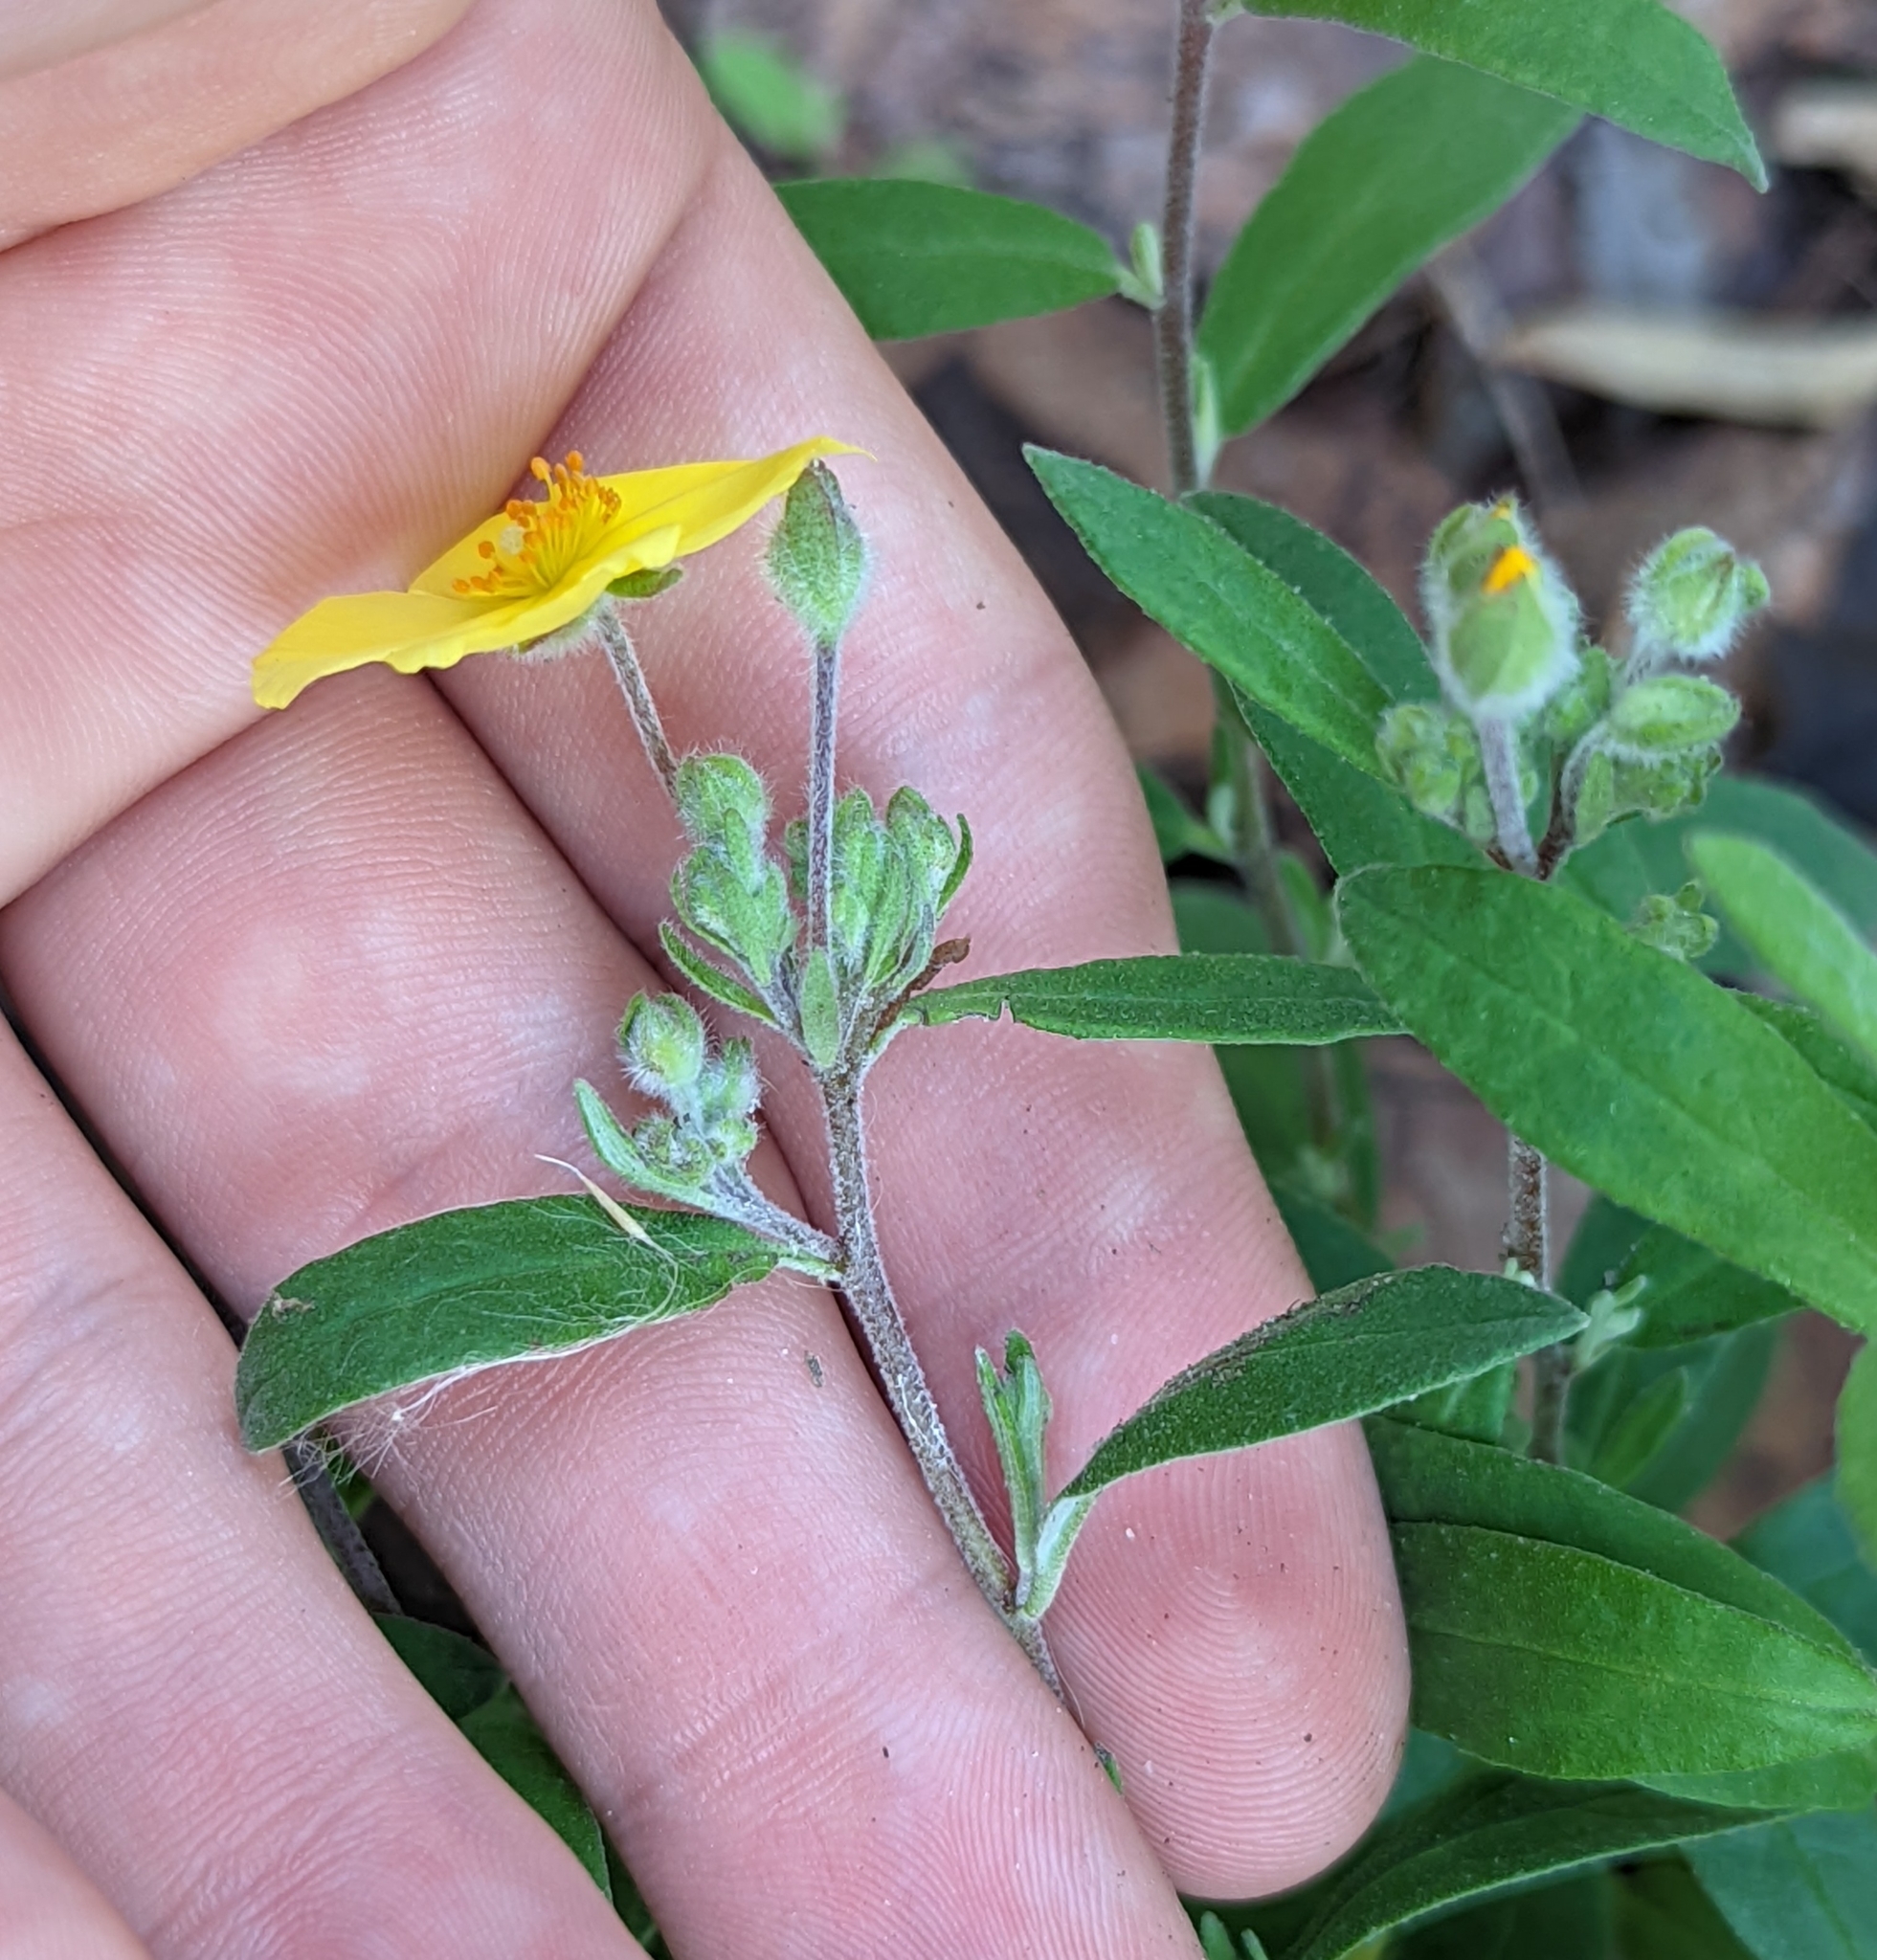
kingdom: Plantae
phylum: Tracheophyta
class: Magnoliopsida
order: Malvales
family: Cistaceae
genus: Crocanthemum
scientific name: Crocanthemum corymbosum
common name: Pinebarren sun-rose
